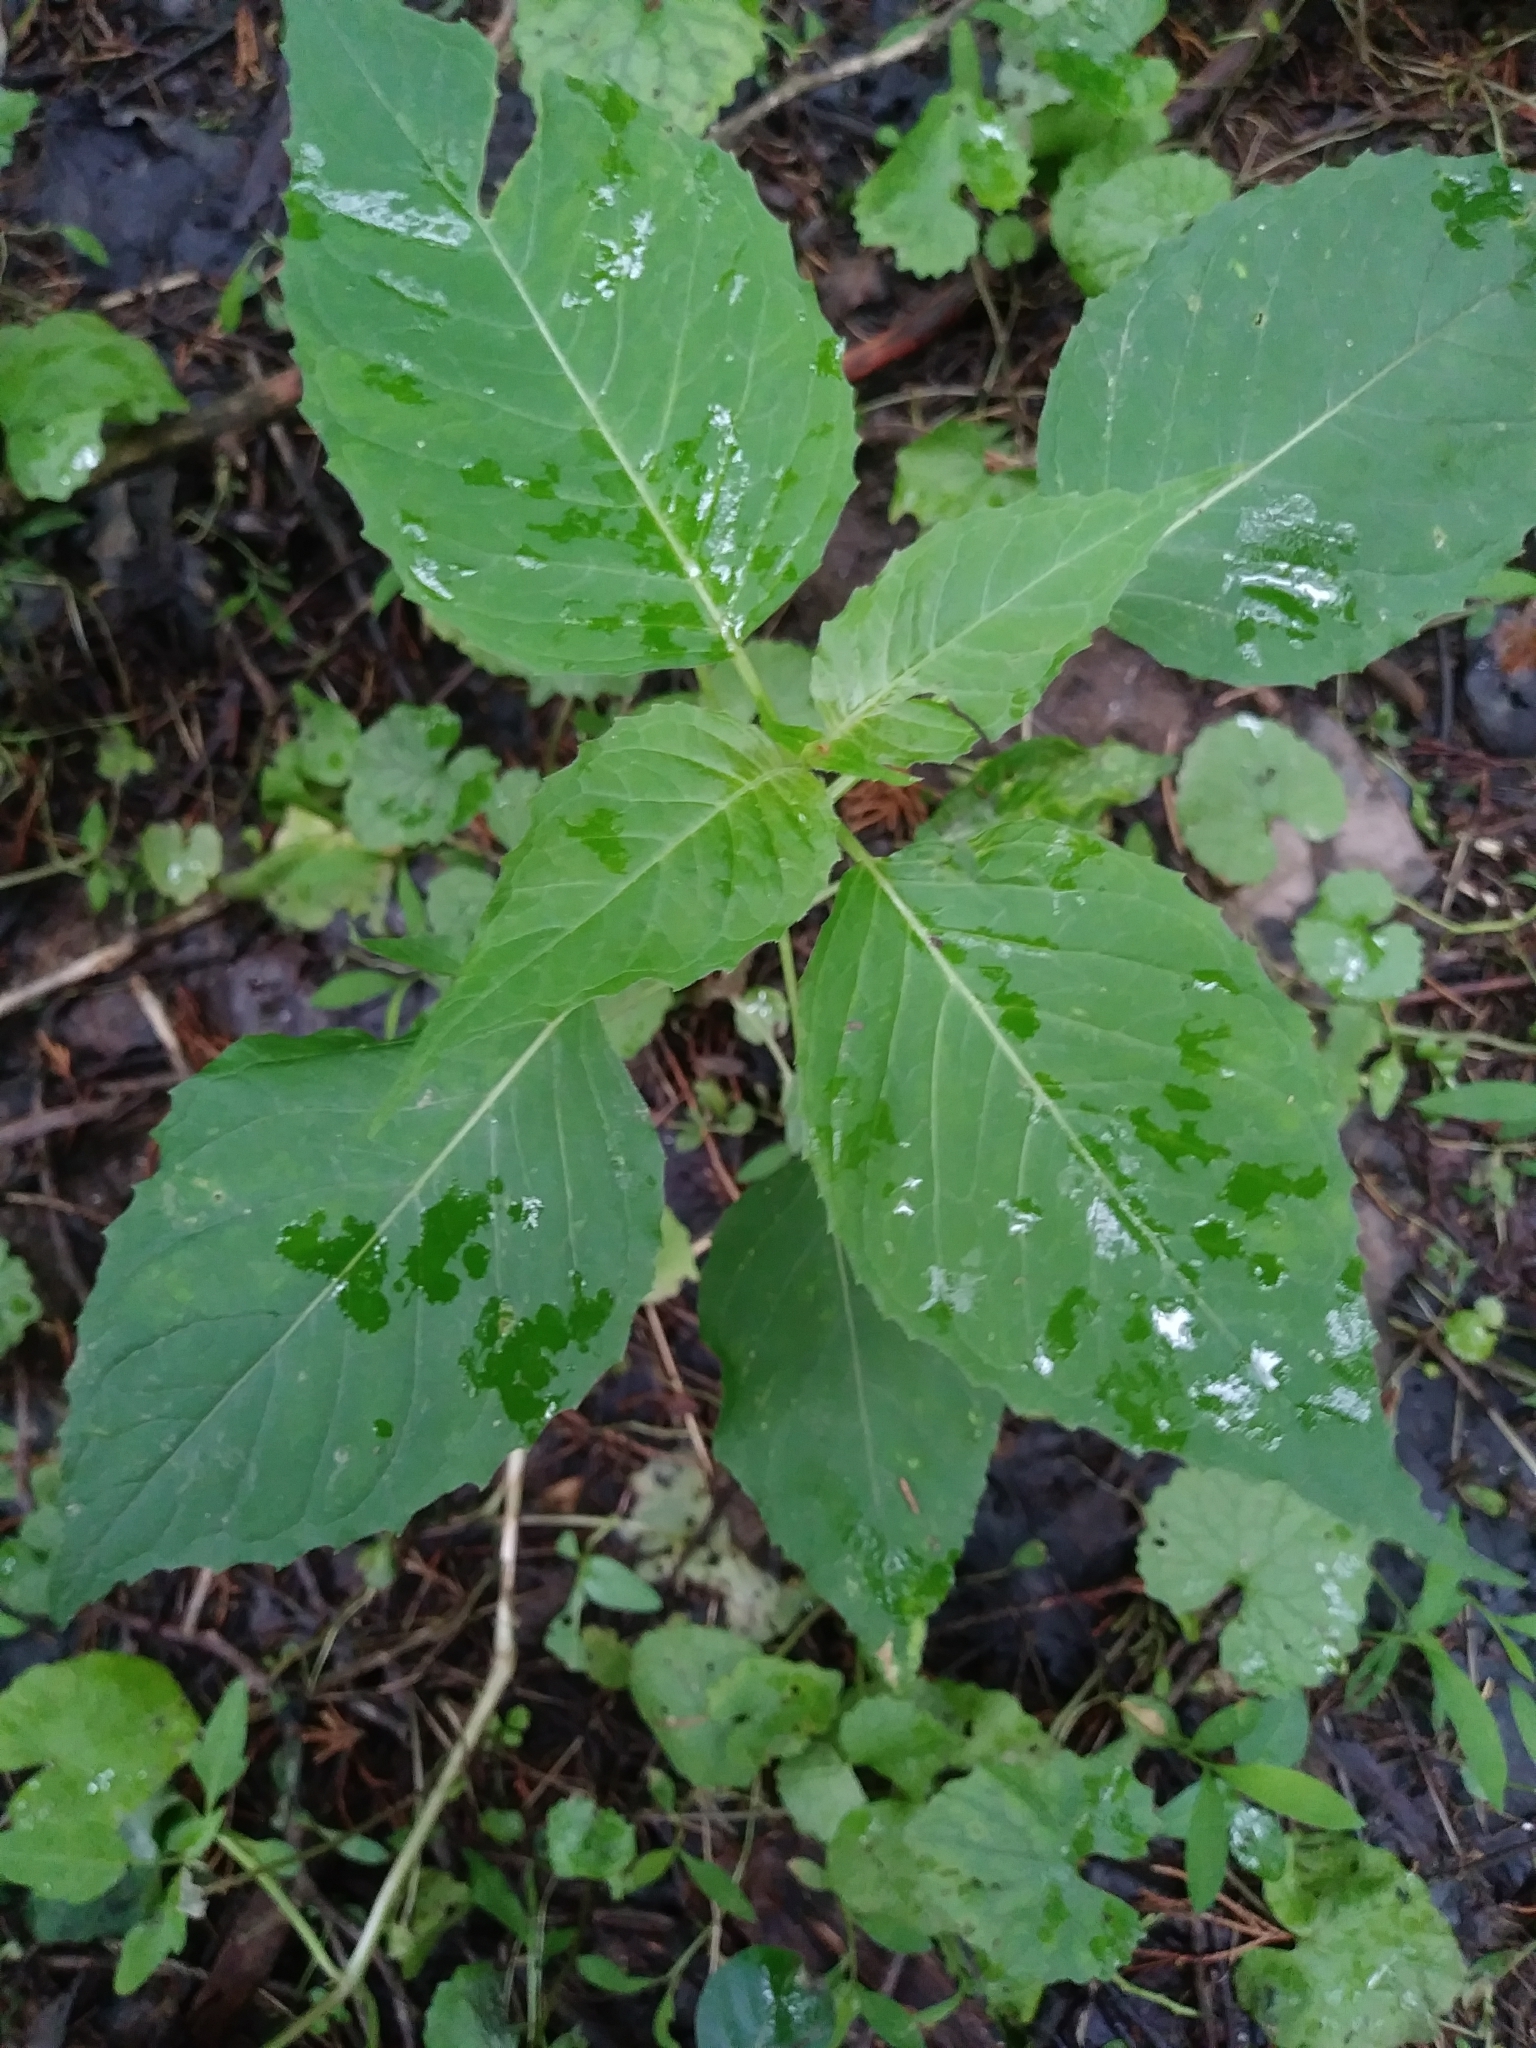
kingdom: Plantae
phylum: Tracheophyta
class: Magnoliopsida
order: Myrtales
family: Onagraceae
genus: Circaea
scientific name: Circaea canadensis
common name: Broad-leaved enchanter's nightshade
